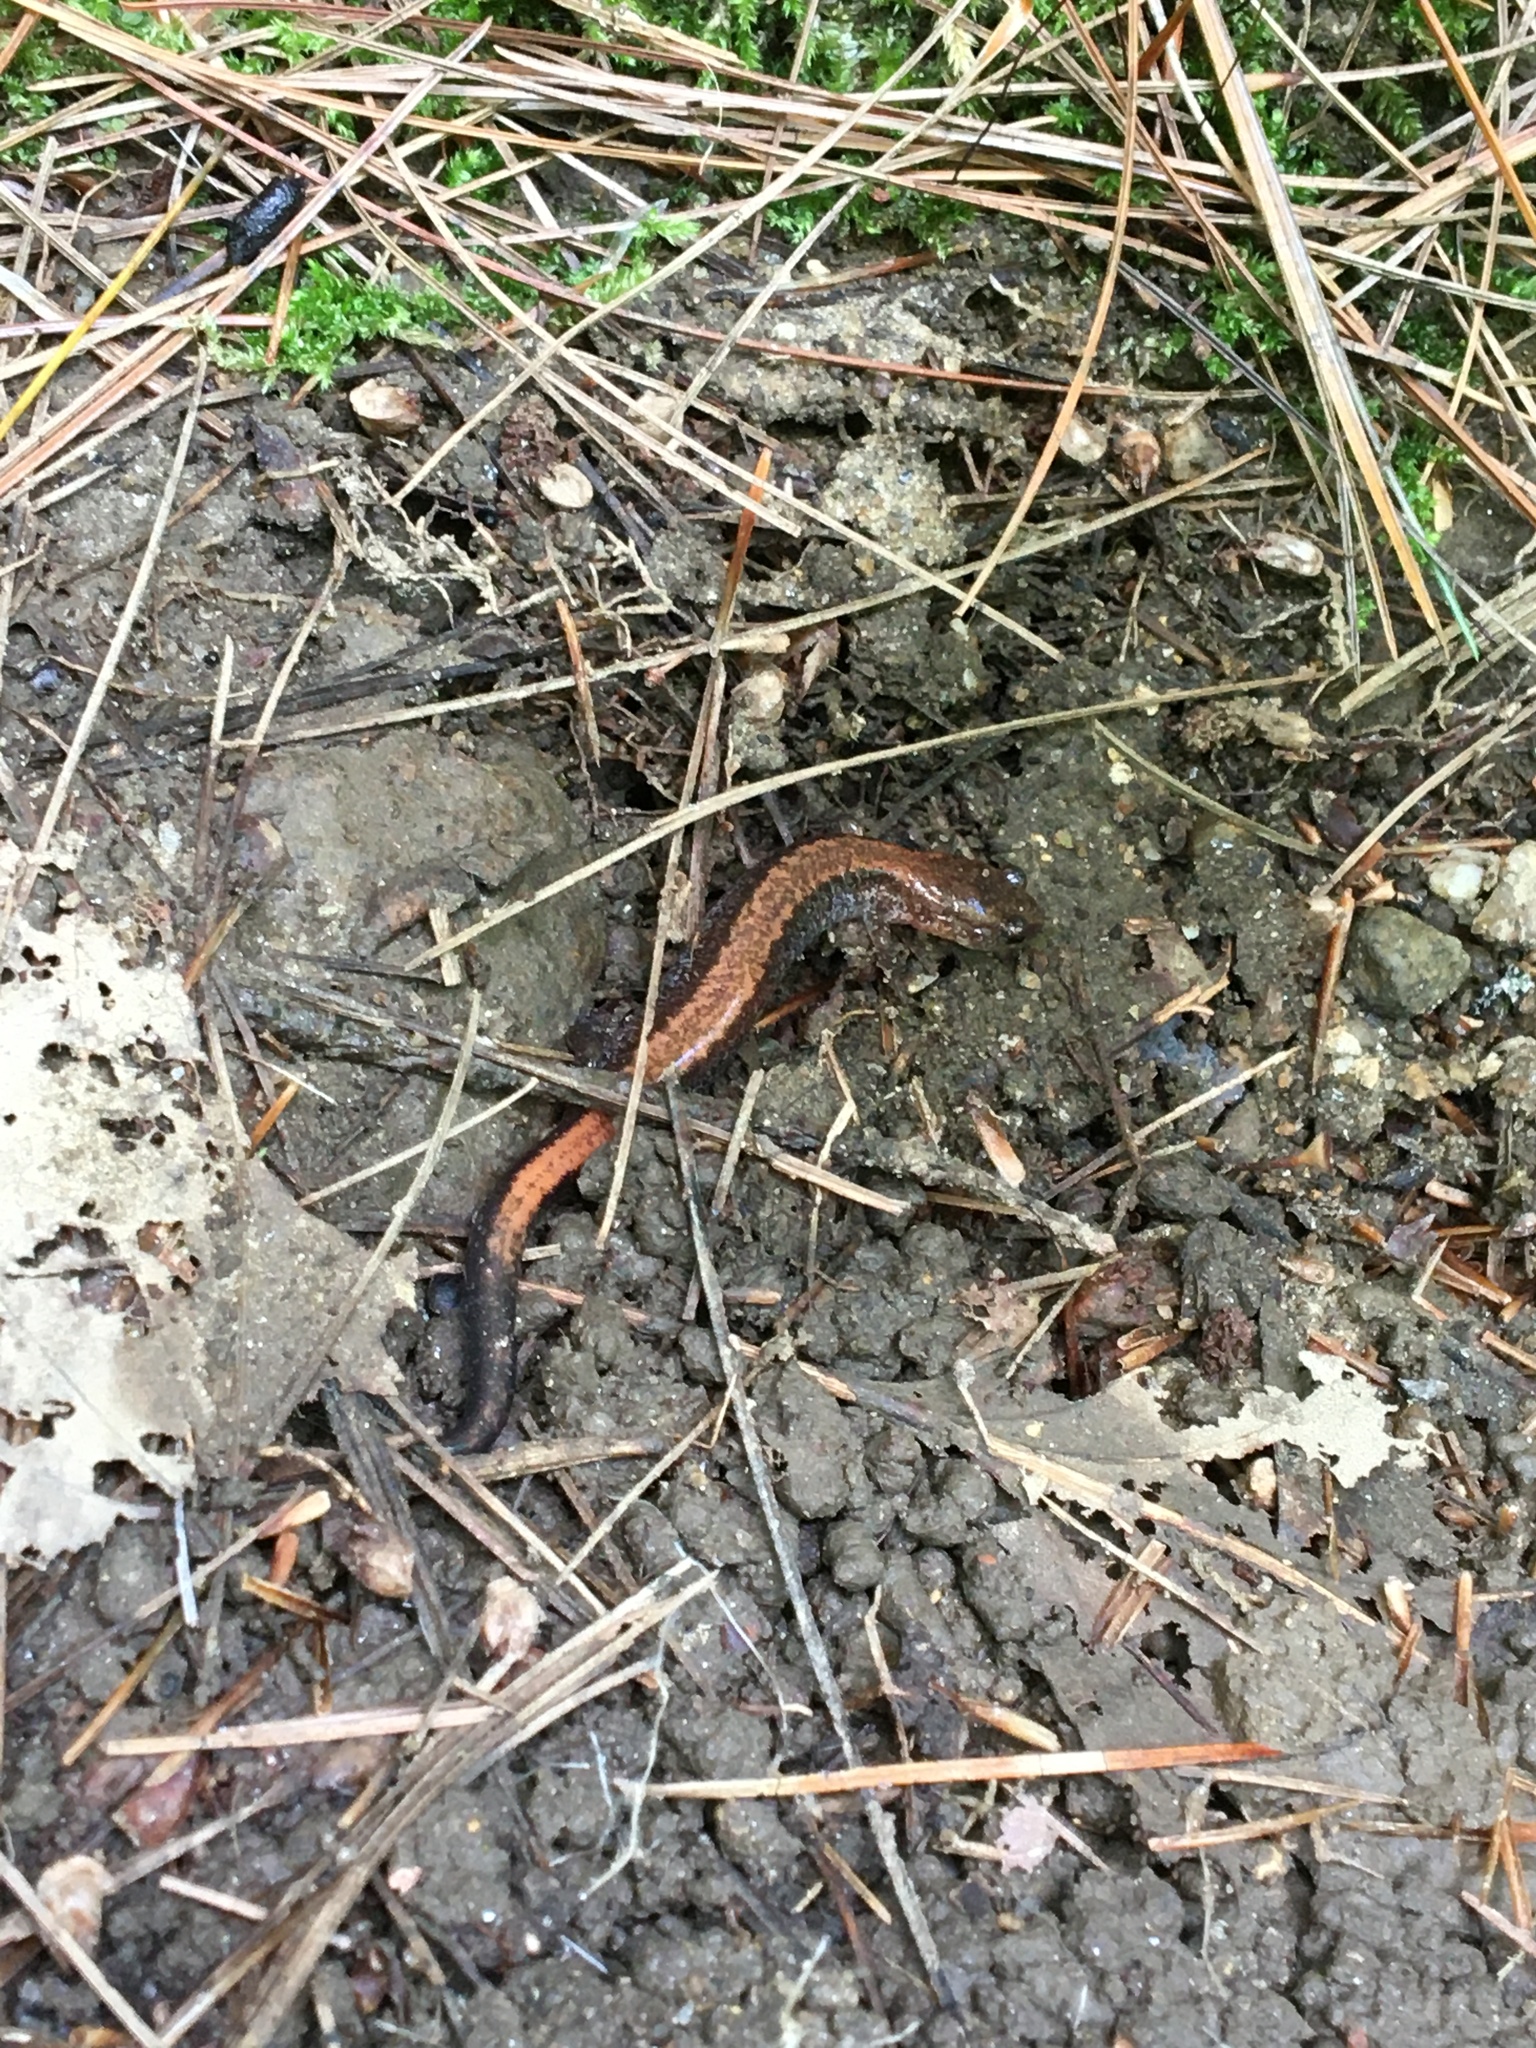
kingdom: Animalia
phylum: Chordata
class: Amphibia
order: Caudata
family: Plethodontidae
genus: Plethodon
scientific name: Plethodon cinereus
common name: Redback salamander
